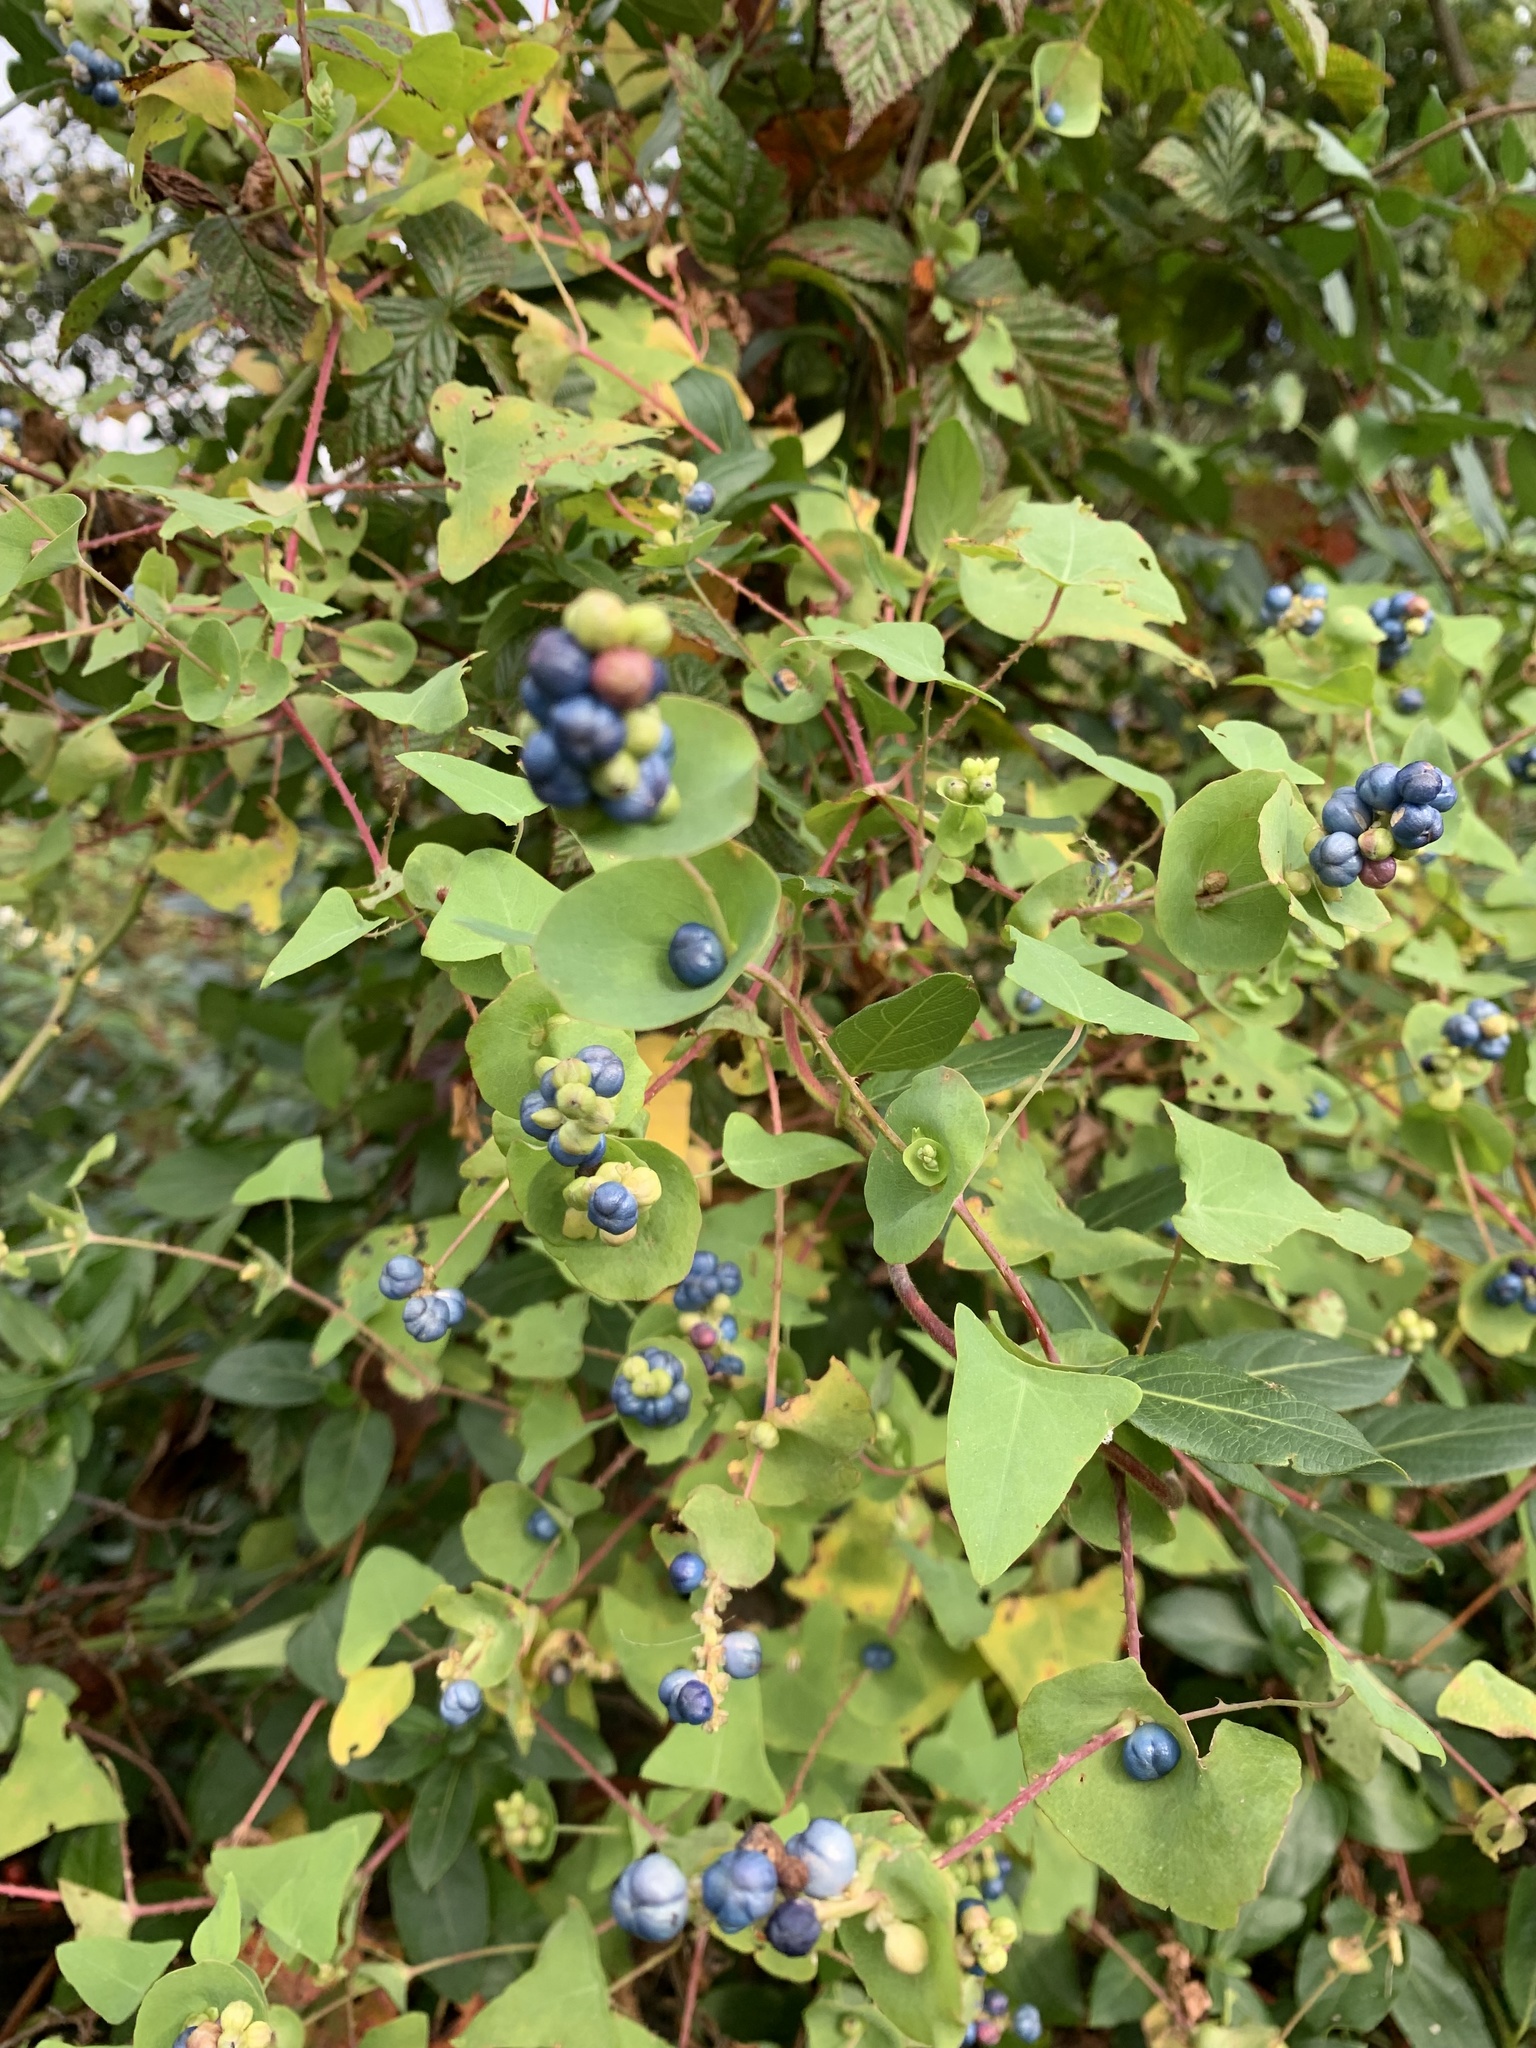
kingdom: Plantae
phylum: Tracheophyta
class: Magnoliopsida
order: Caryophyllales
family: Polygonaceae
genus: Persicaria
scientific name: Persicaria perfoliata
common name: Asiatic tearthumb
